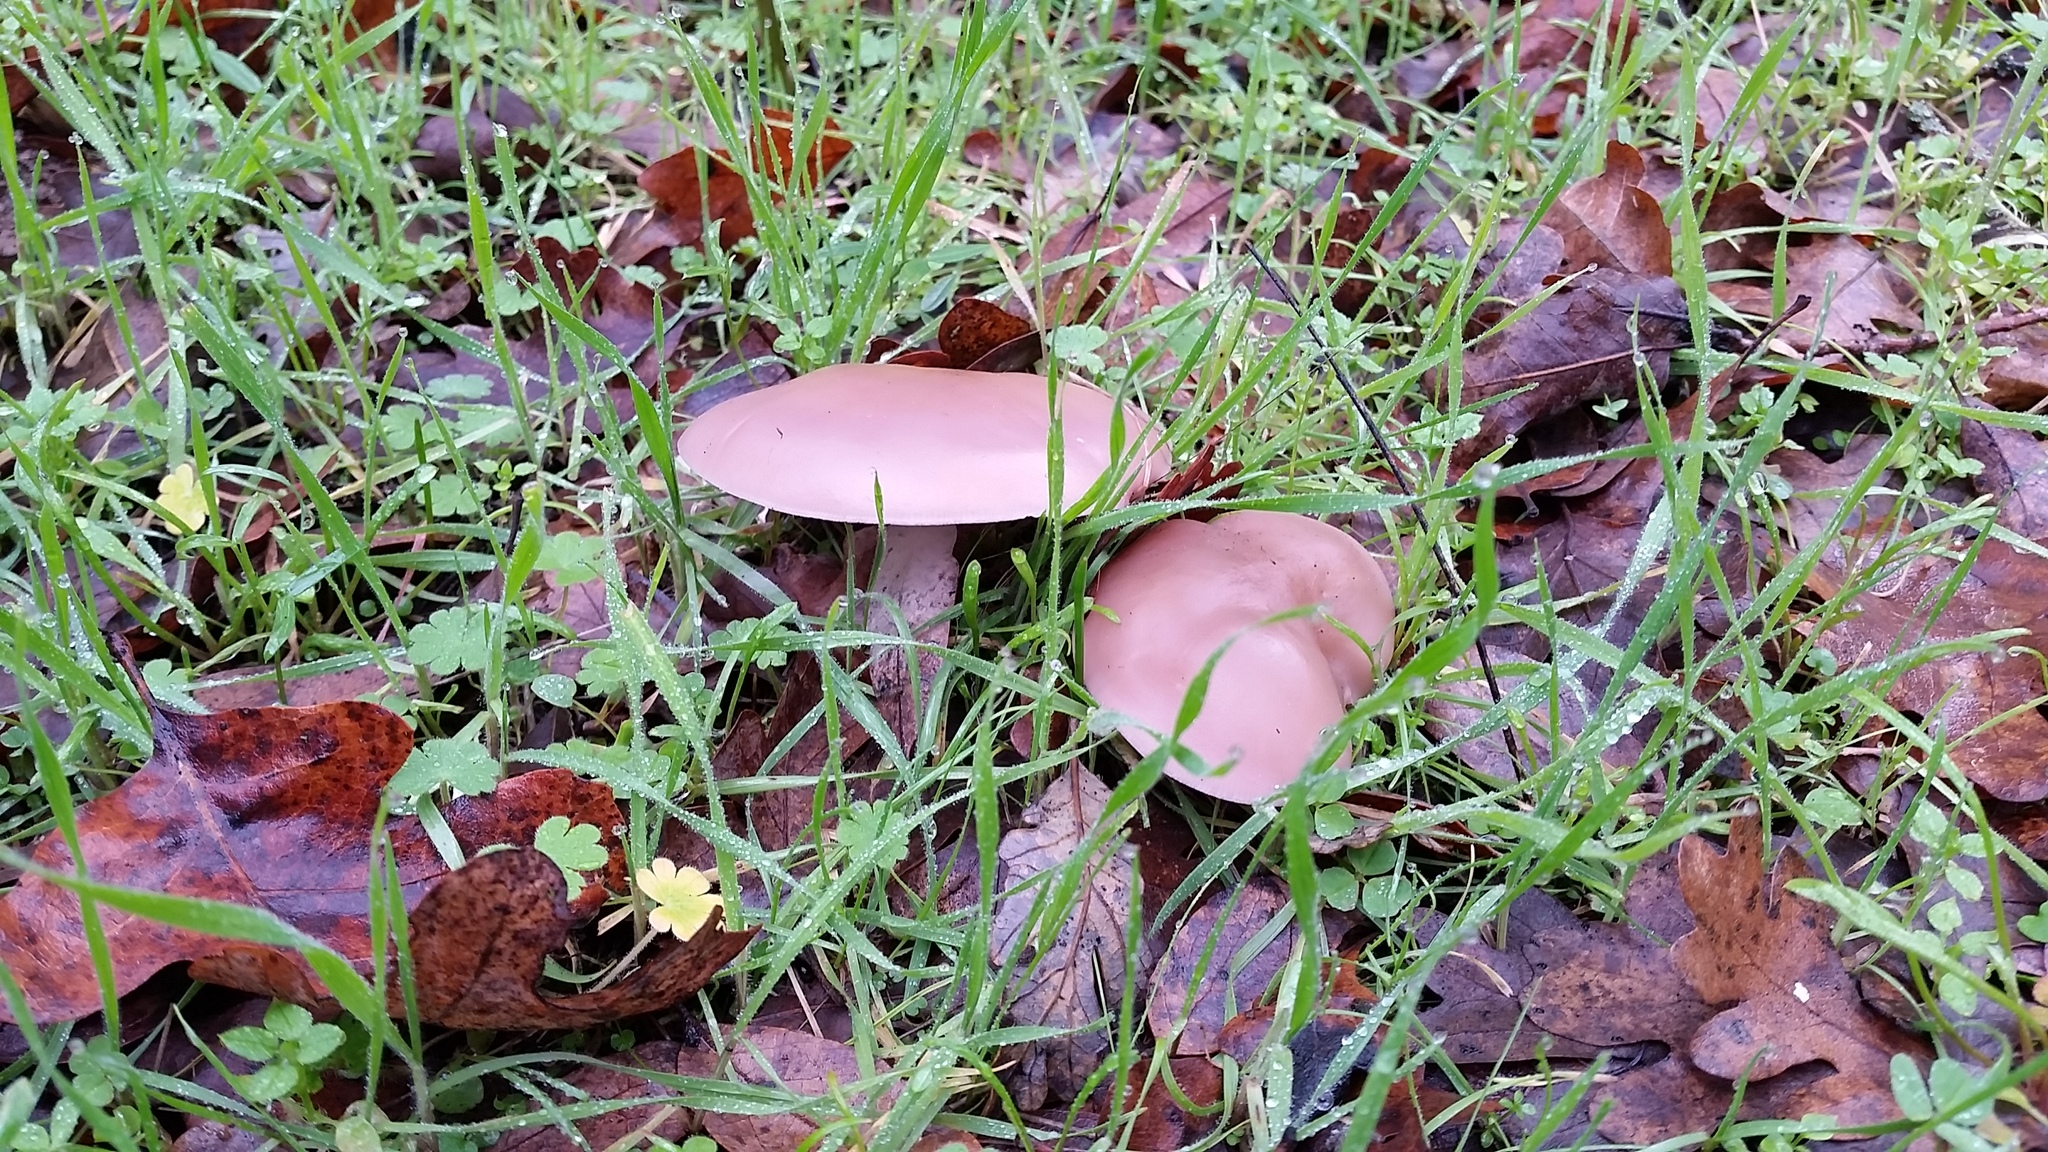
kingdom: Fungi
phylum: Basidiomycota
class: Agaricomycetes
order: Agaricales
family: Tricholomataceae
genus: Collybia
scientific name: Collybia
